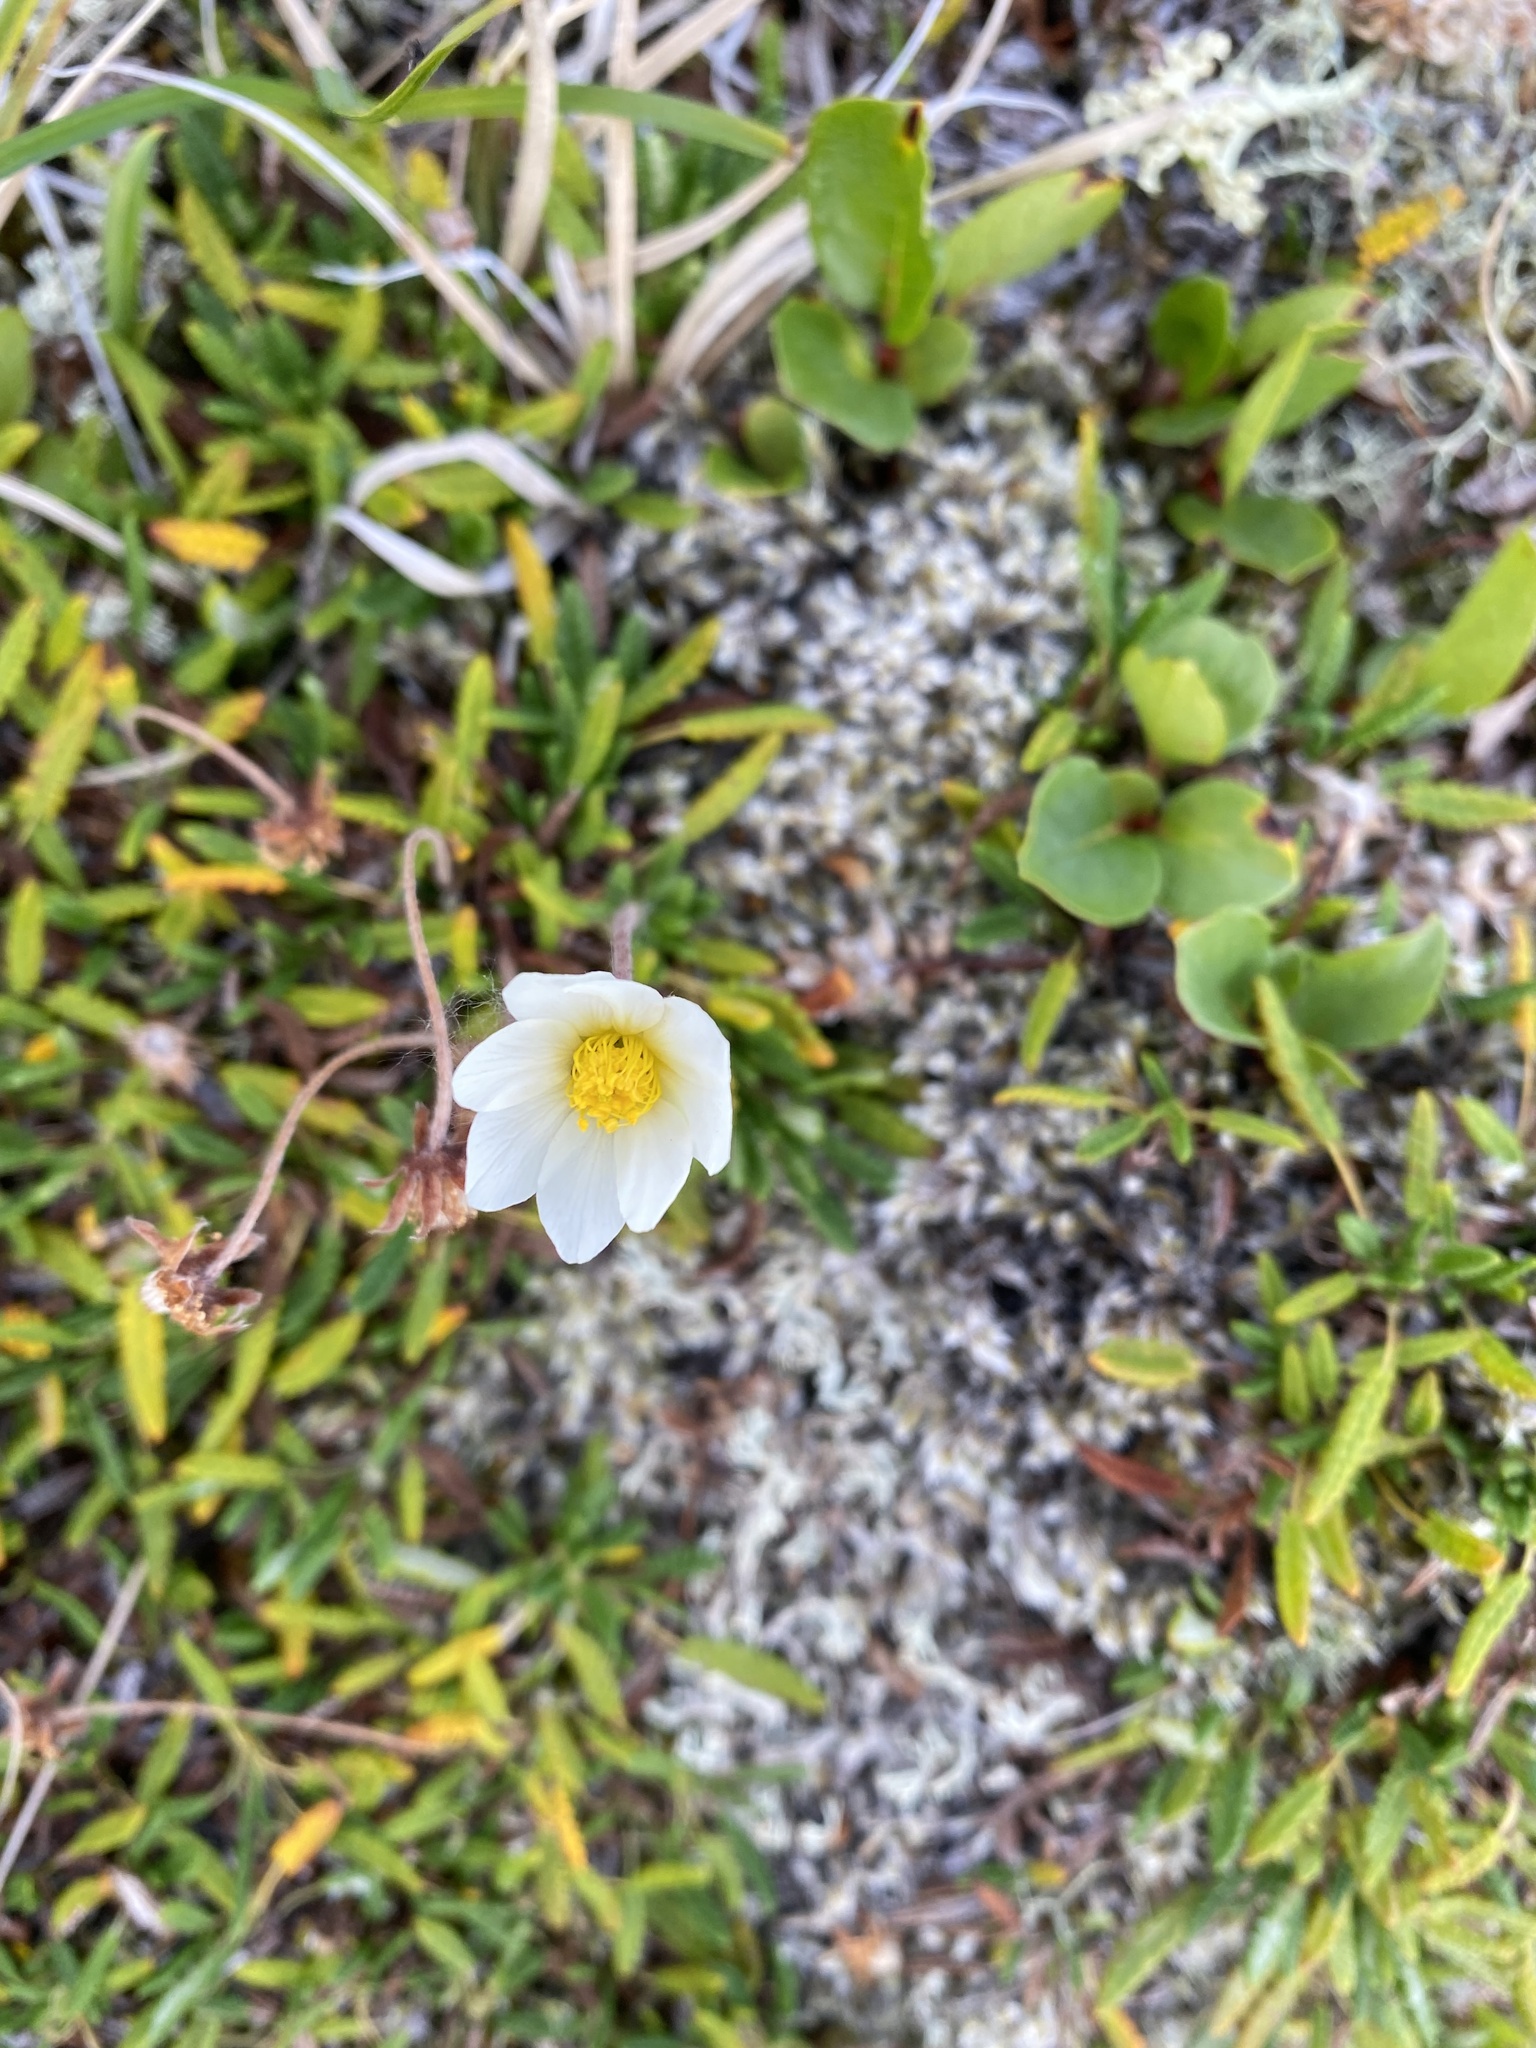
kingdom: Plantae
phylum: Tracheophyta
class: Magnoliopsida
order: Rosales
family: Rosaceae
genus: Dryas
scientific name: Dryas octopetala
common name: Eight-petal mountain-avens
